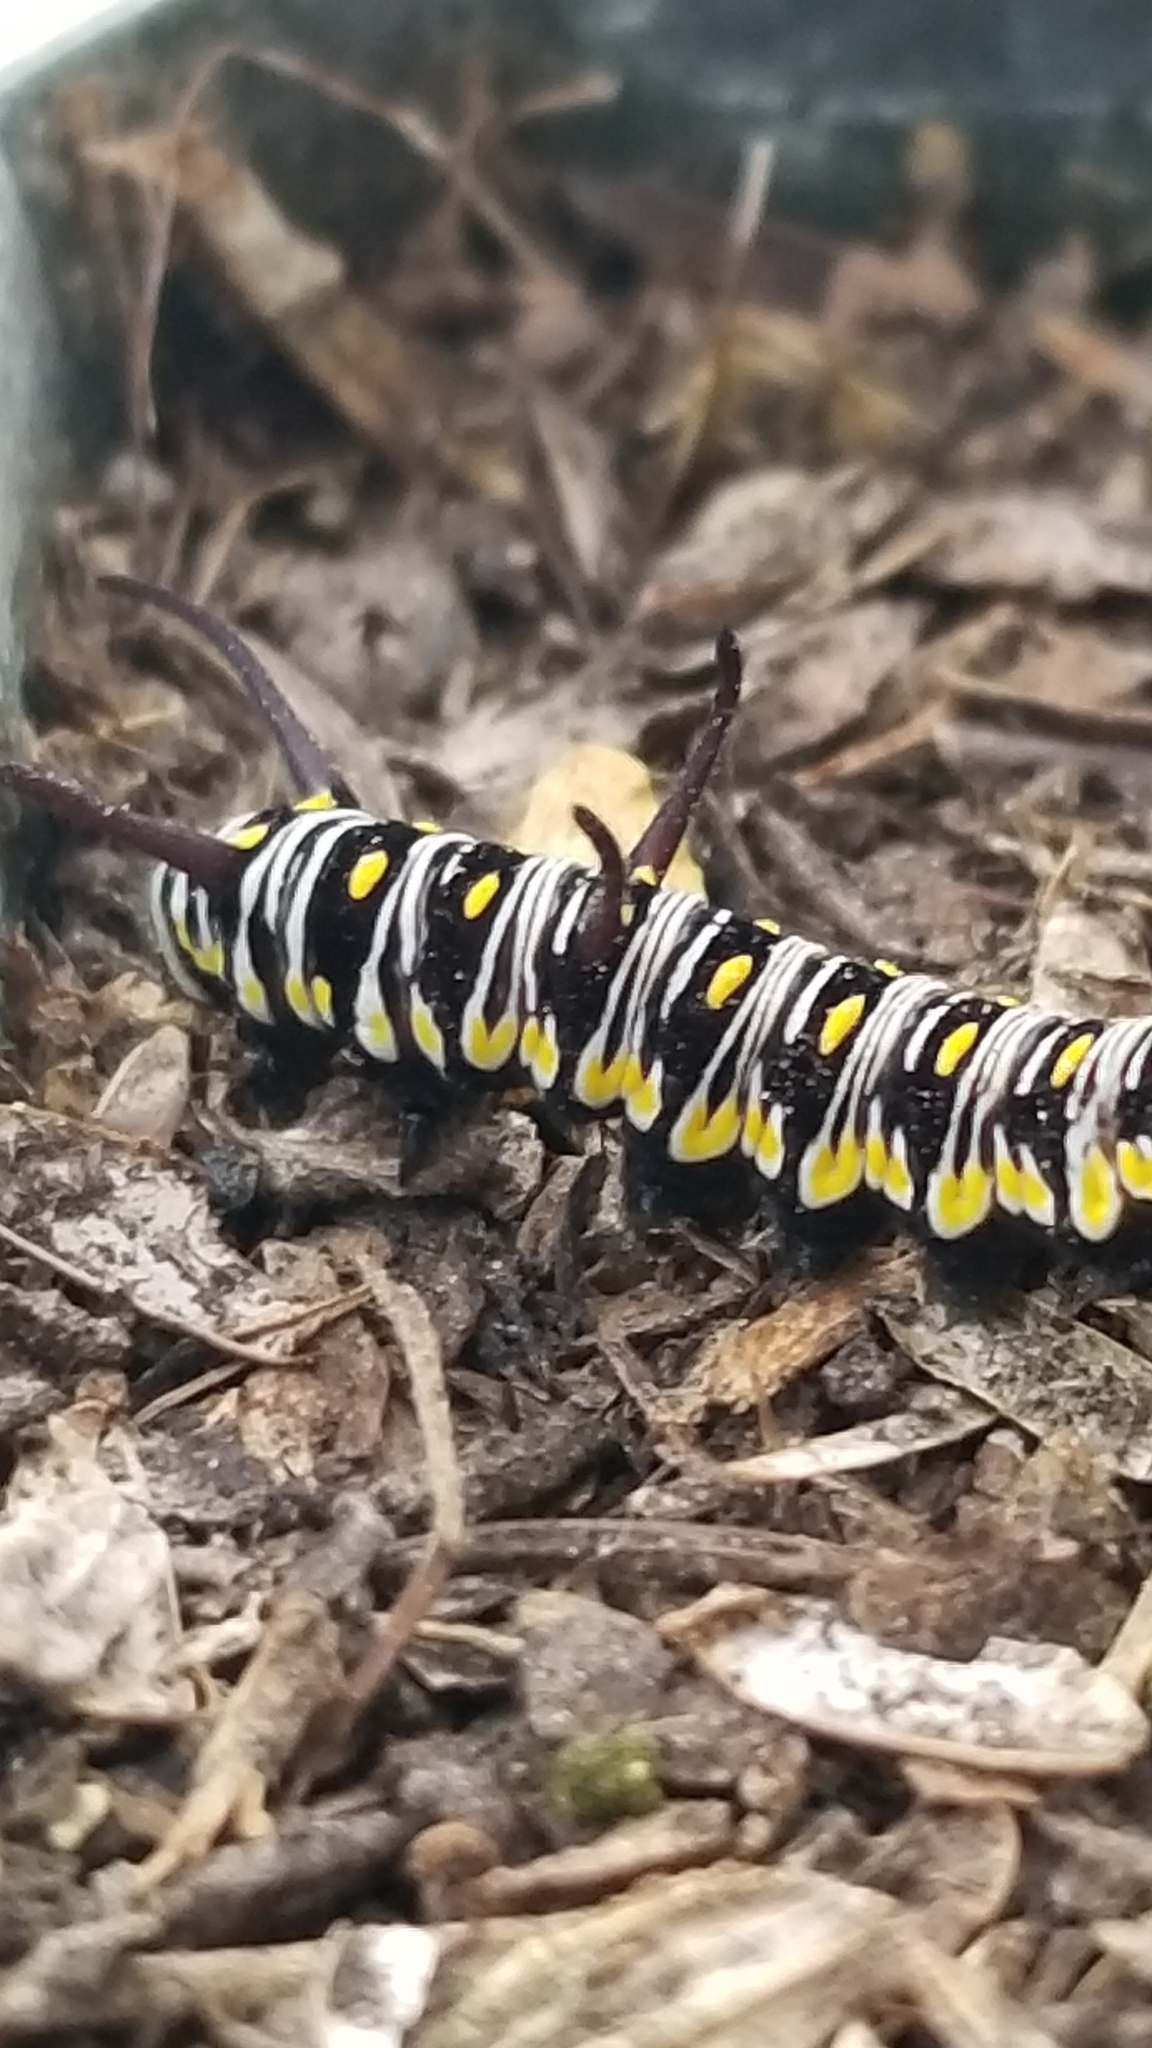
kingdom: Animalia
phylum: Arthropoda
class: Insecta
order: Lepidoptera
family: Nymphalidae
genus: Danaus
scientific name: Danaus gilippus
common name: Queen
